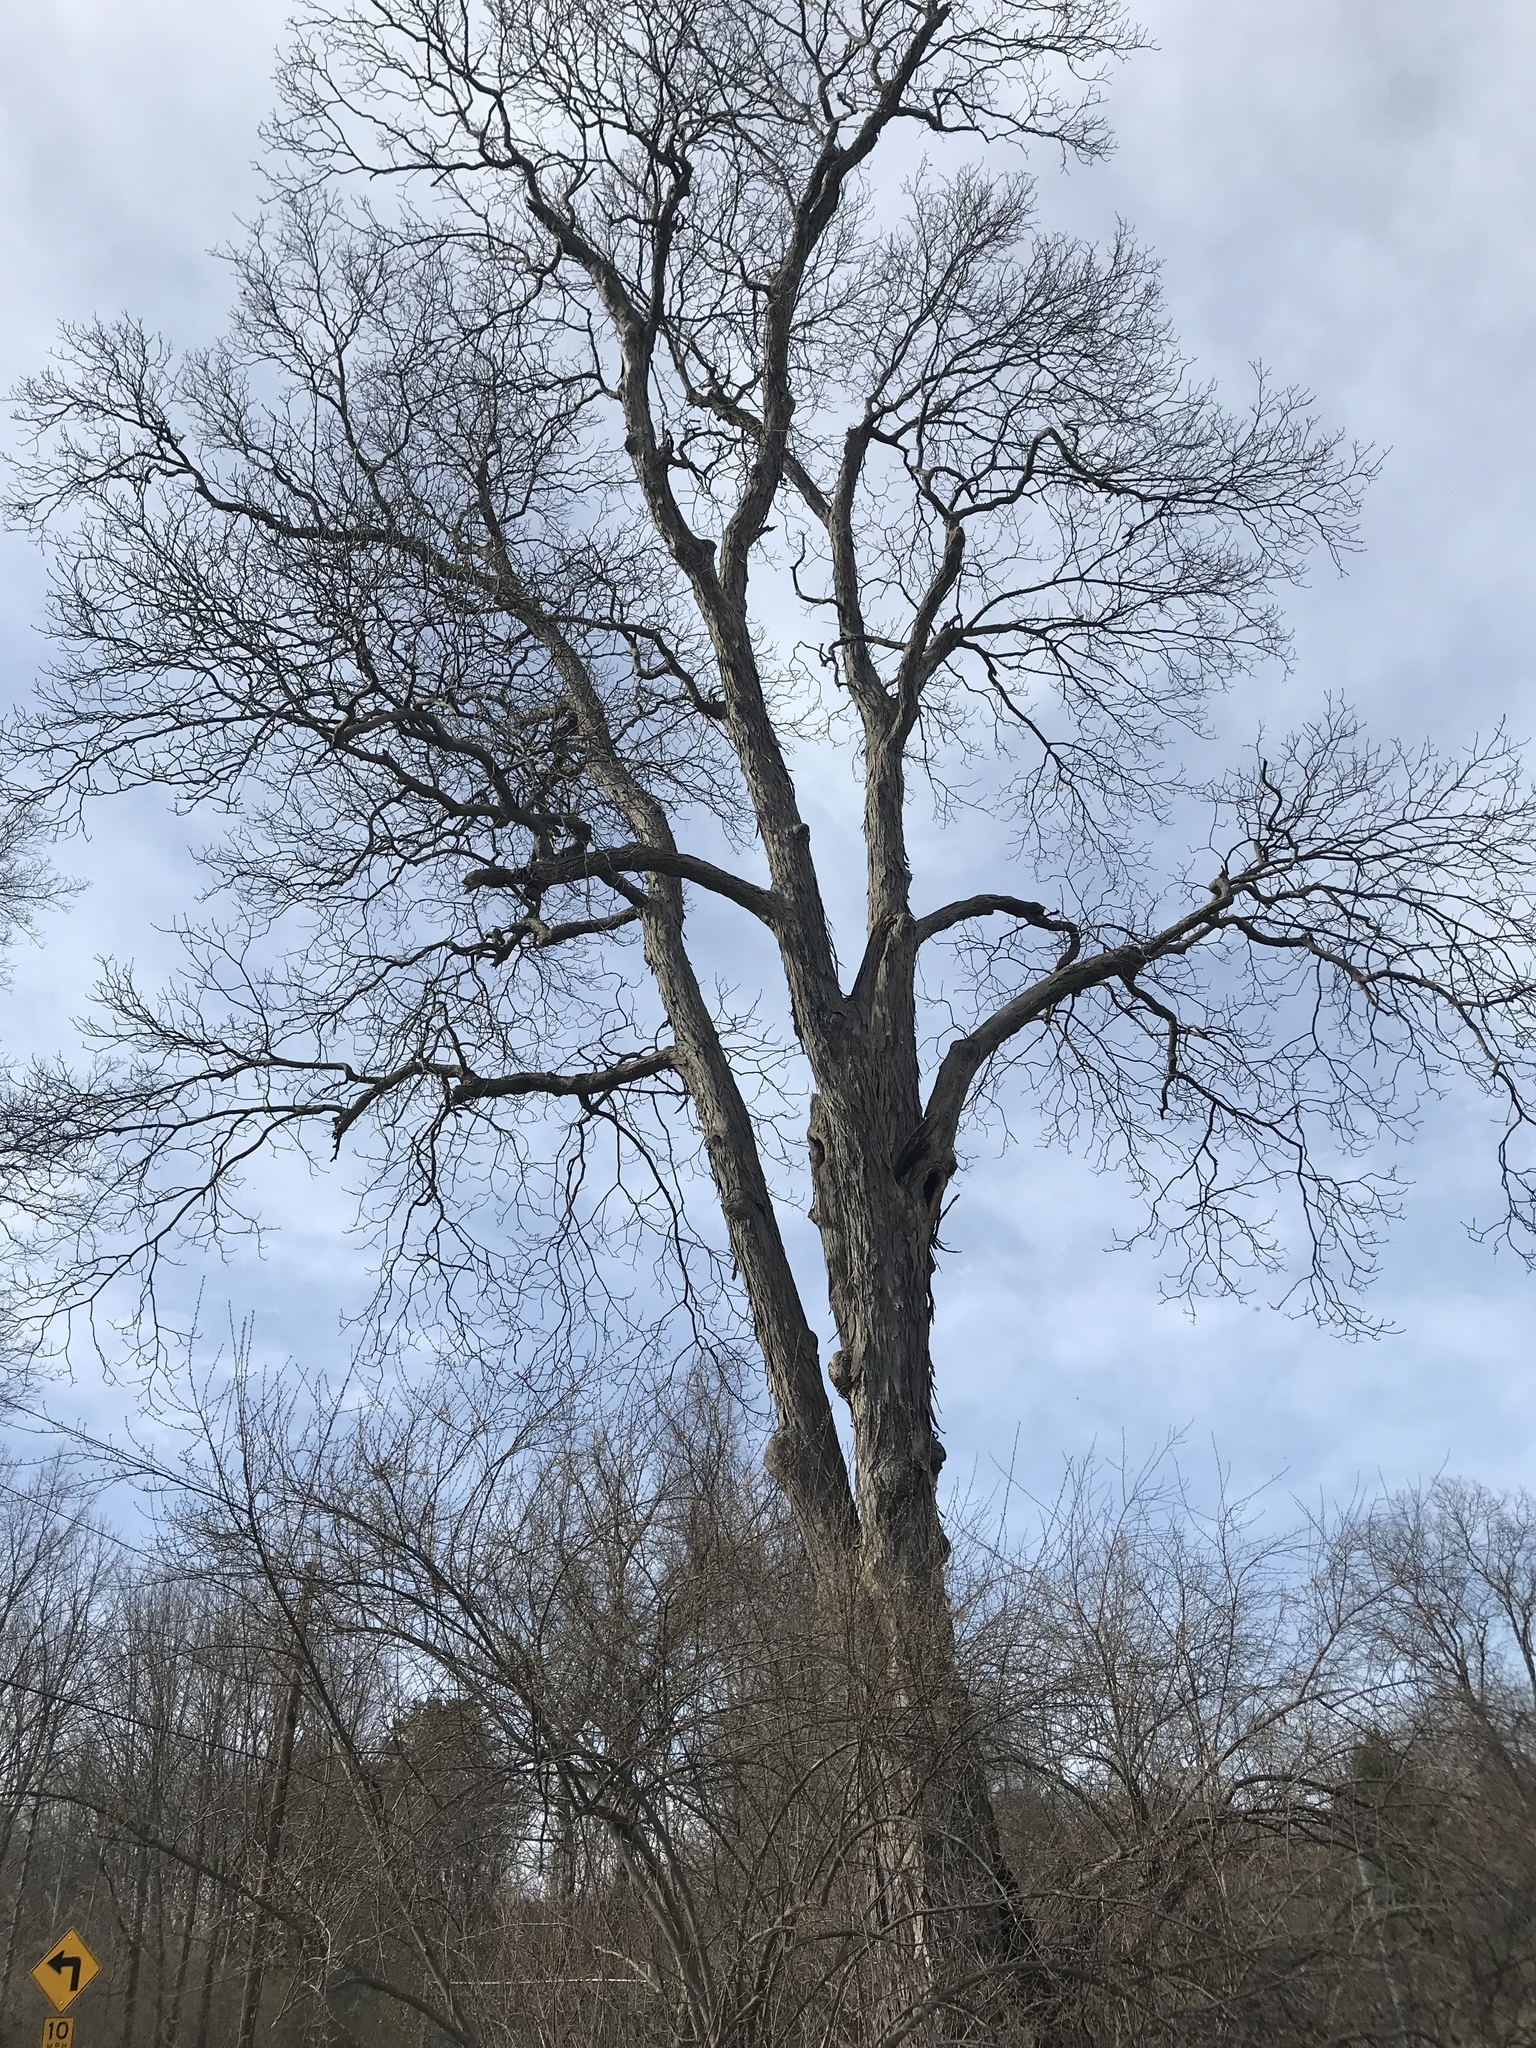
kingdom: Plantae
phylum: Tracheophyta
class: Magnoliopsida
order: Fagales
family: Juglandaceae
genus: Carya
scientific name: Carya ovata
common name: Shagbark hickory
